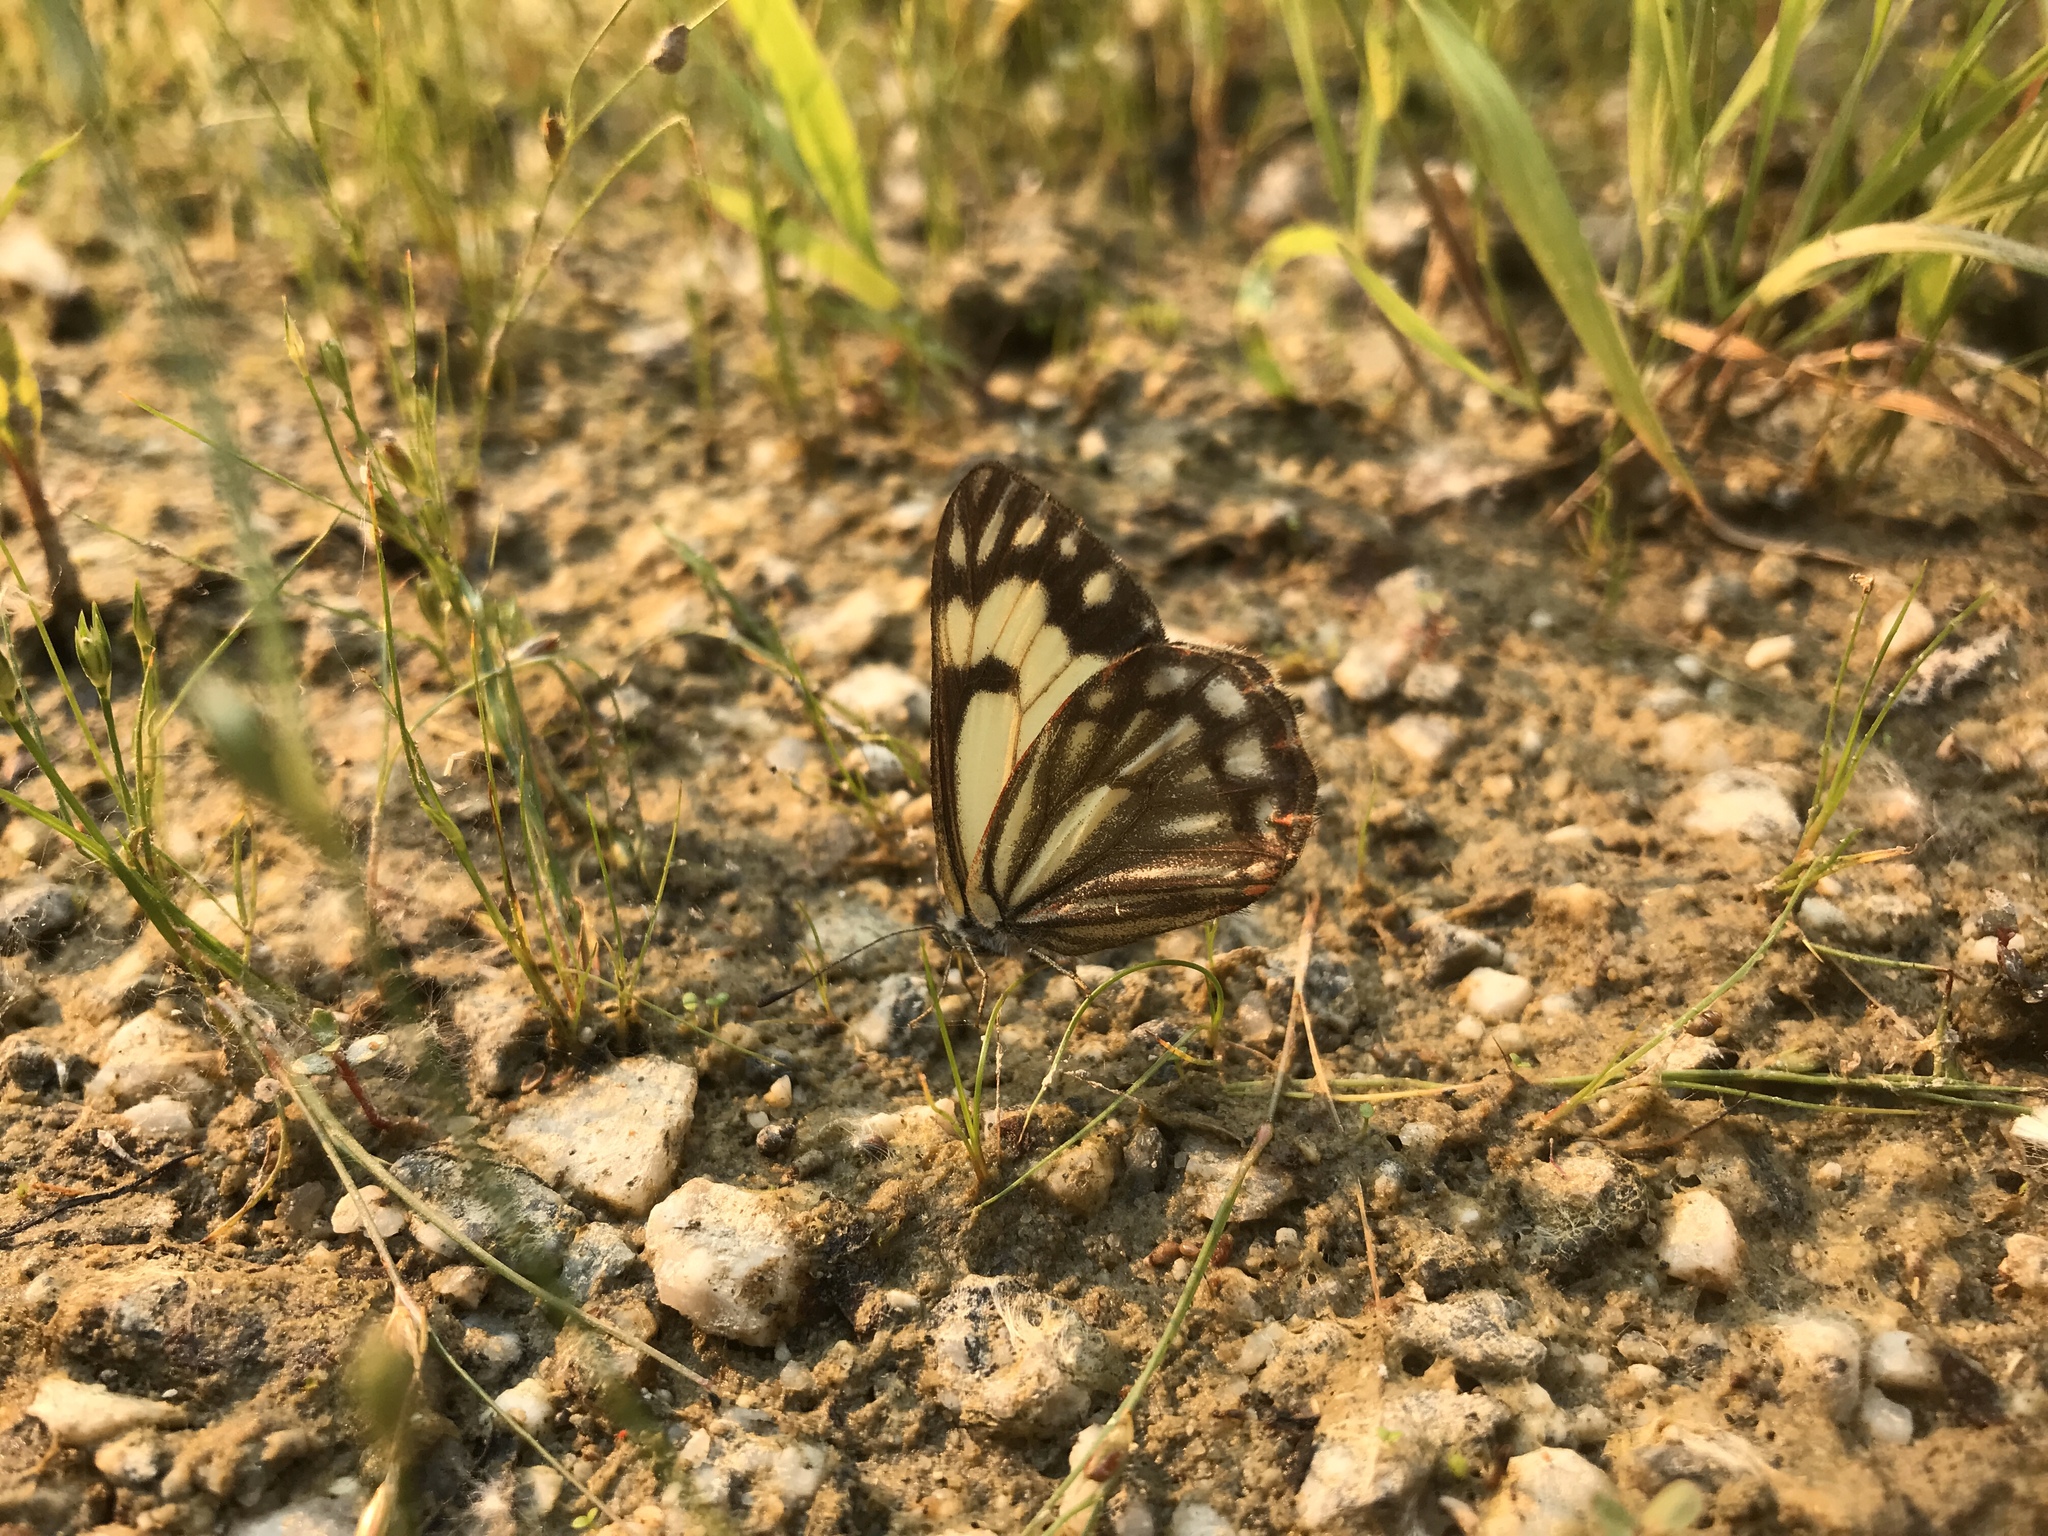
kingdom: Animalia
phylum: Arthropoda
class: Insecta
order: Lepidoptera
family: Pieridae
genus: Neophasia
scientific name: Neophasia menapia
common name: Pine white
